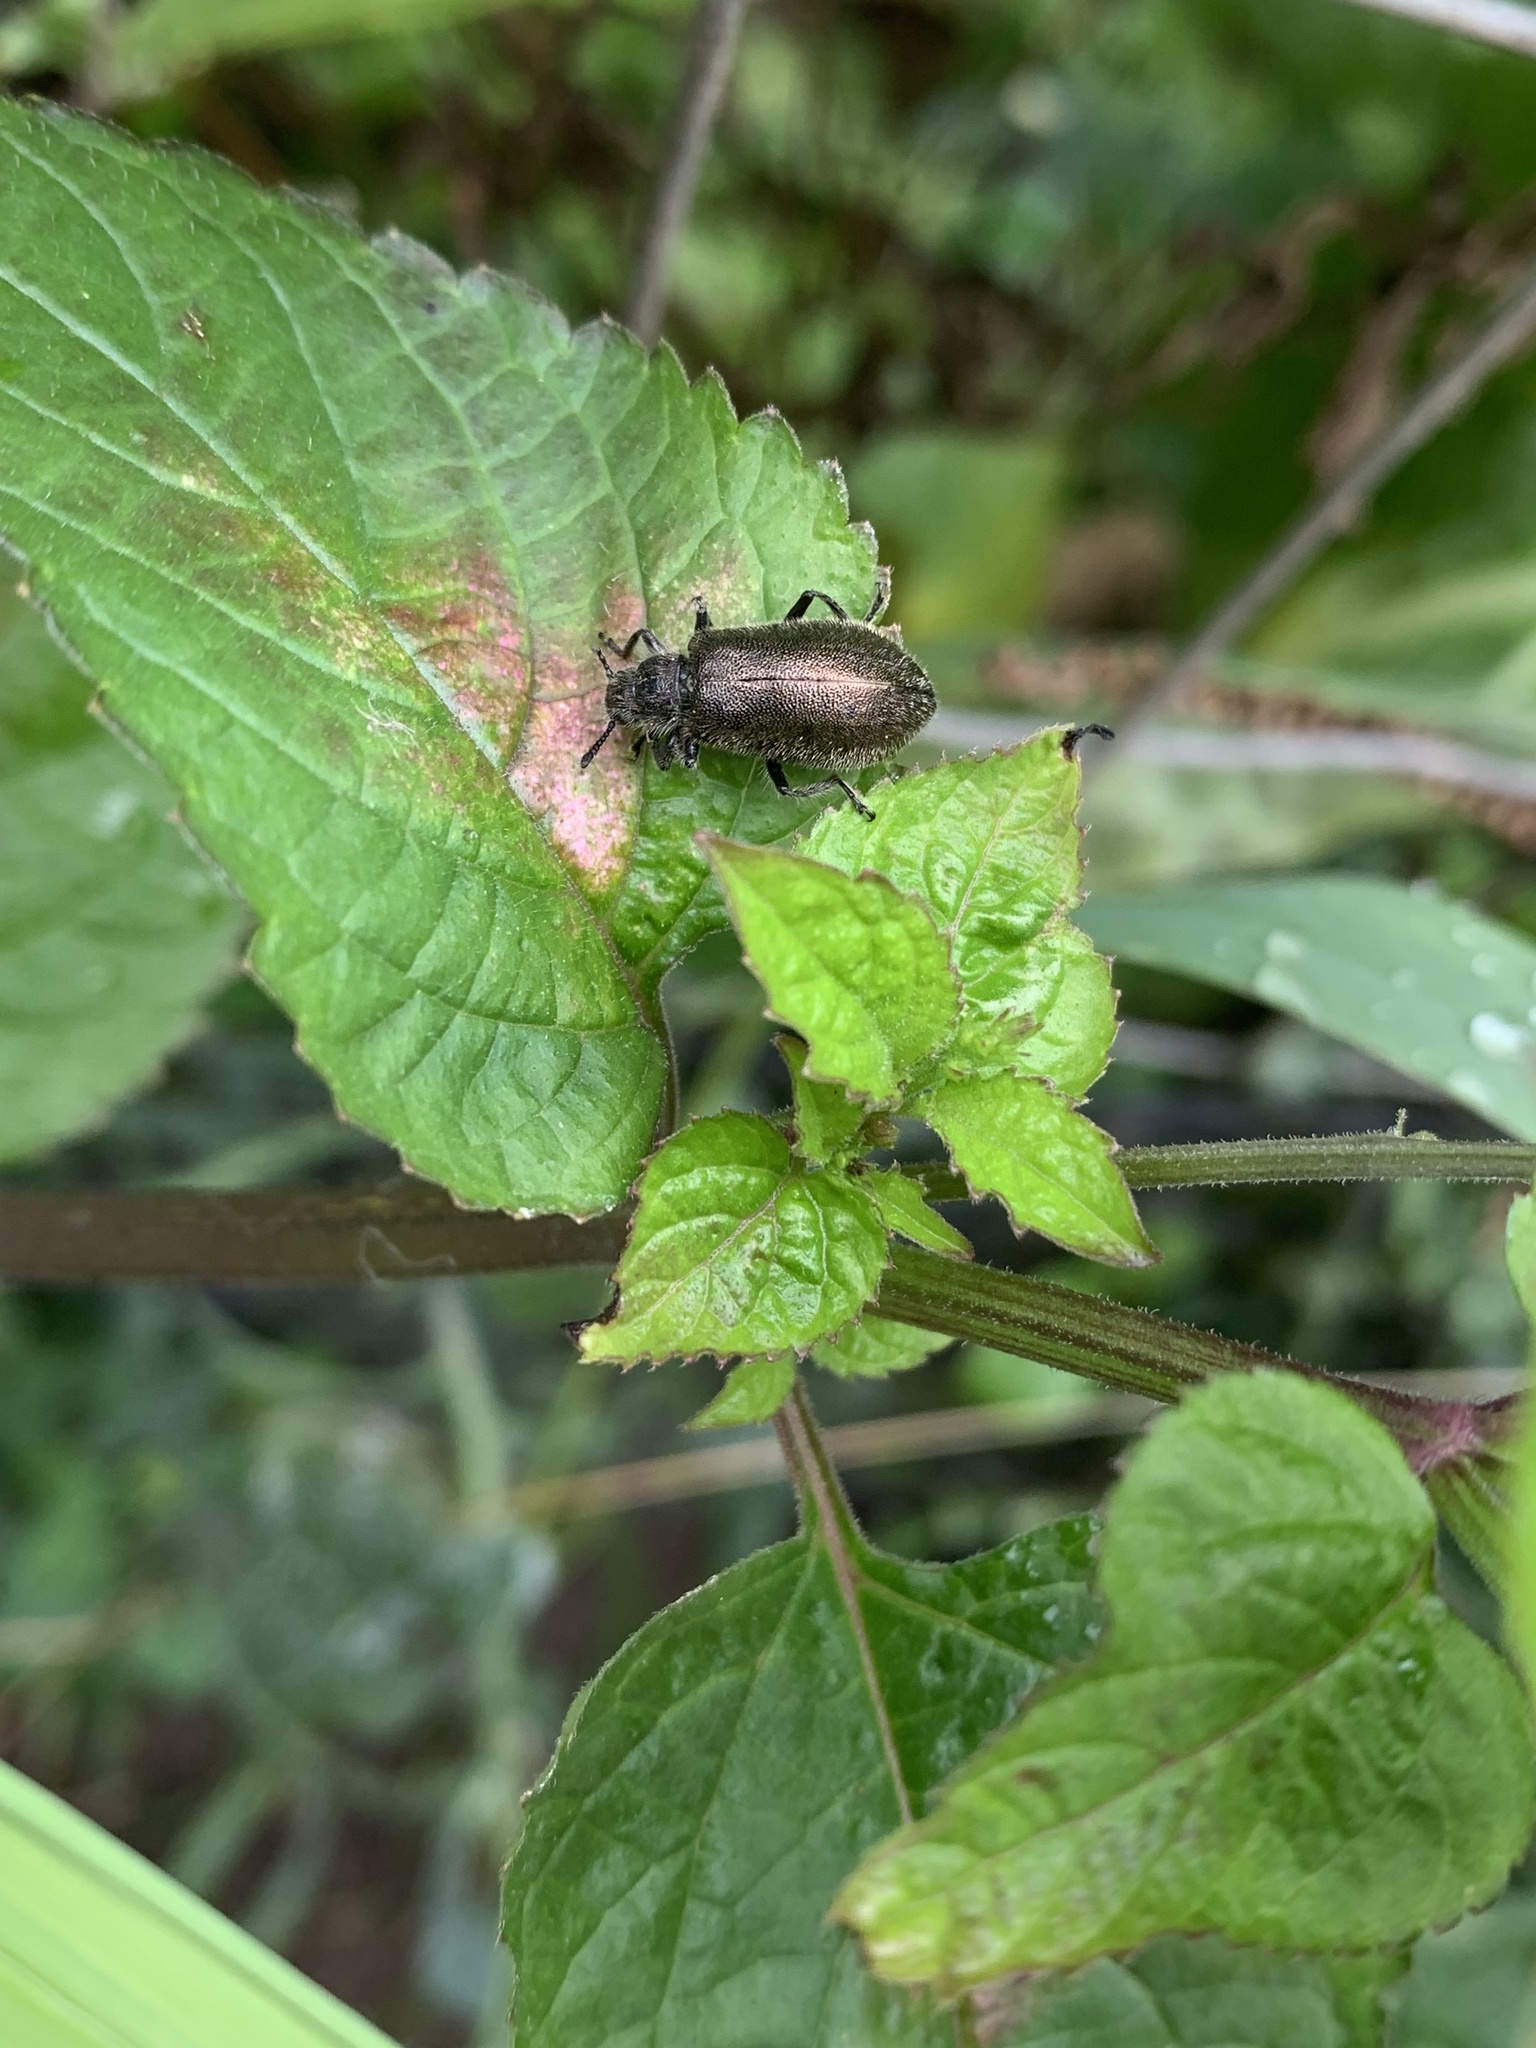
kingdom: Animalia
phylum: Arthropoda
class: Insecta
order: Coleoptera
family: Tenebrionidae
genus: Lagria
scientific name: Lagria villosa
